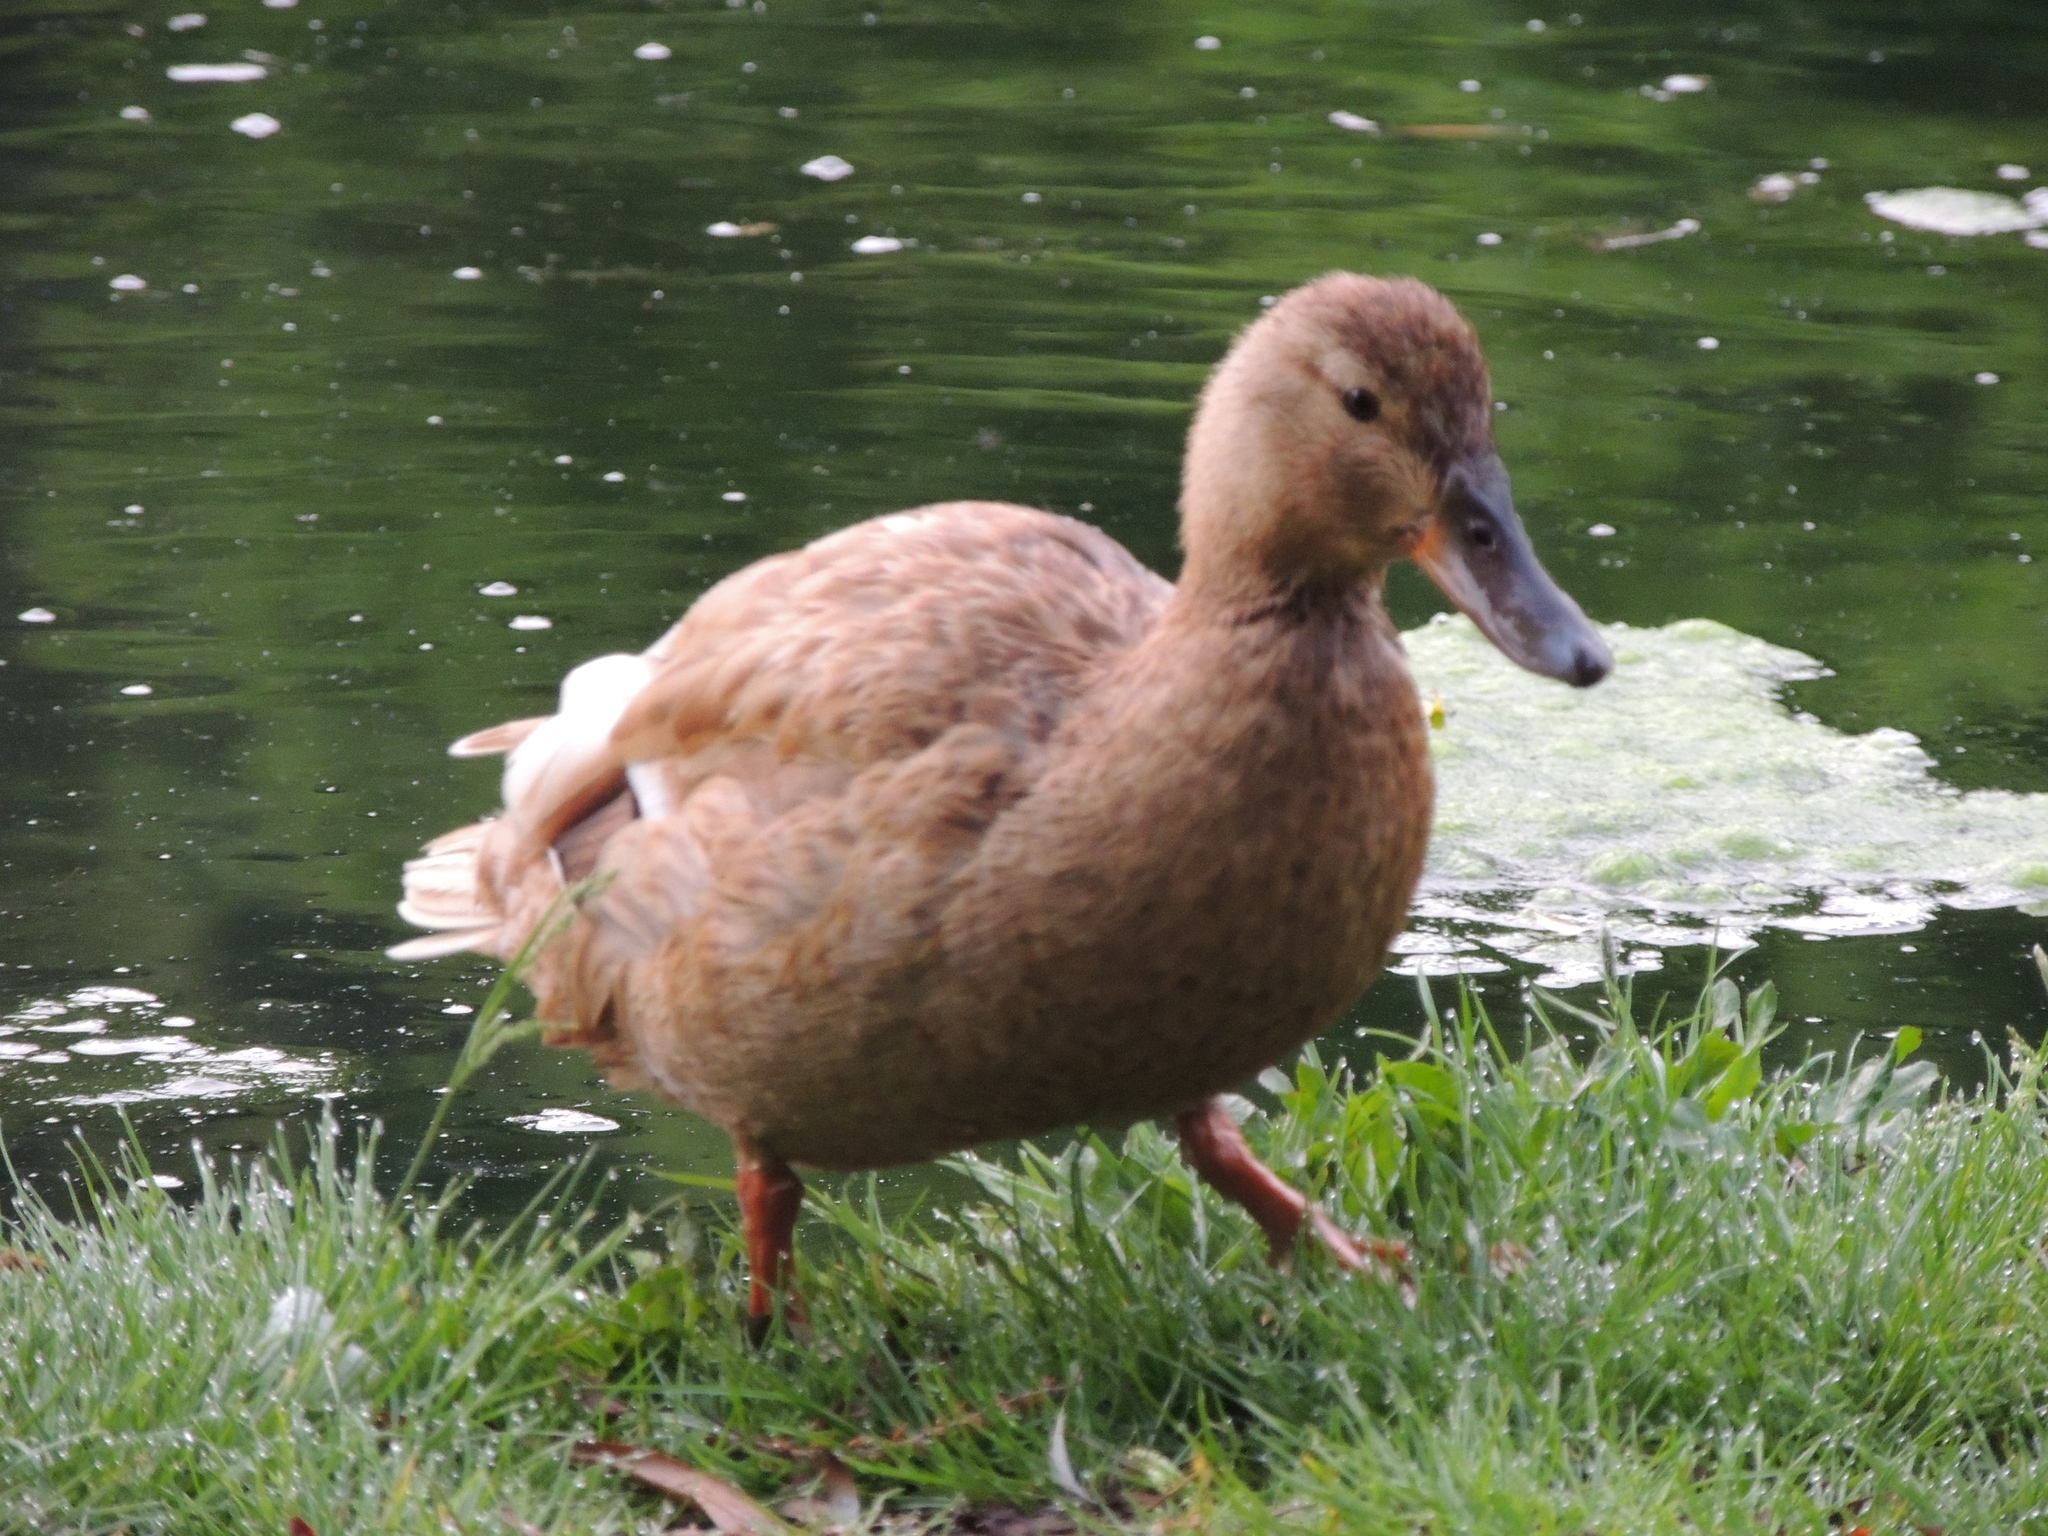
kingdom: Animalia
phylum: Chordata
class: Aves
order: Anseriformes
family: Anatidae
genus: Anas
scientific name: Anas platyrhynchos
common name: Mallard
